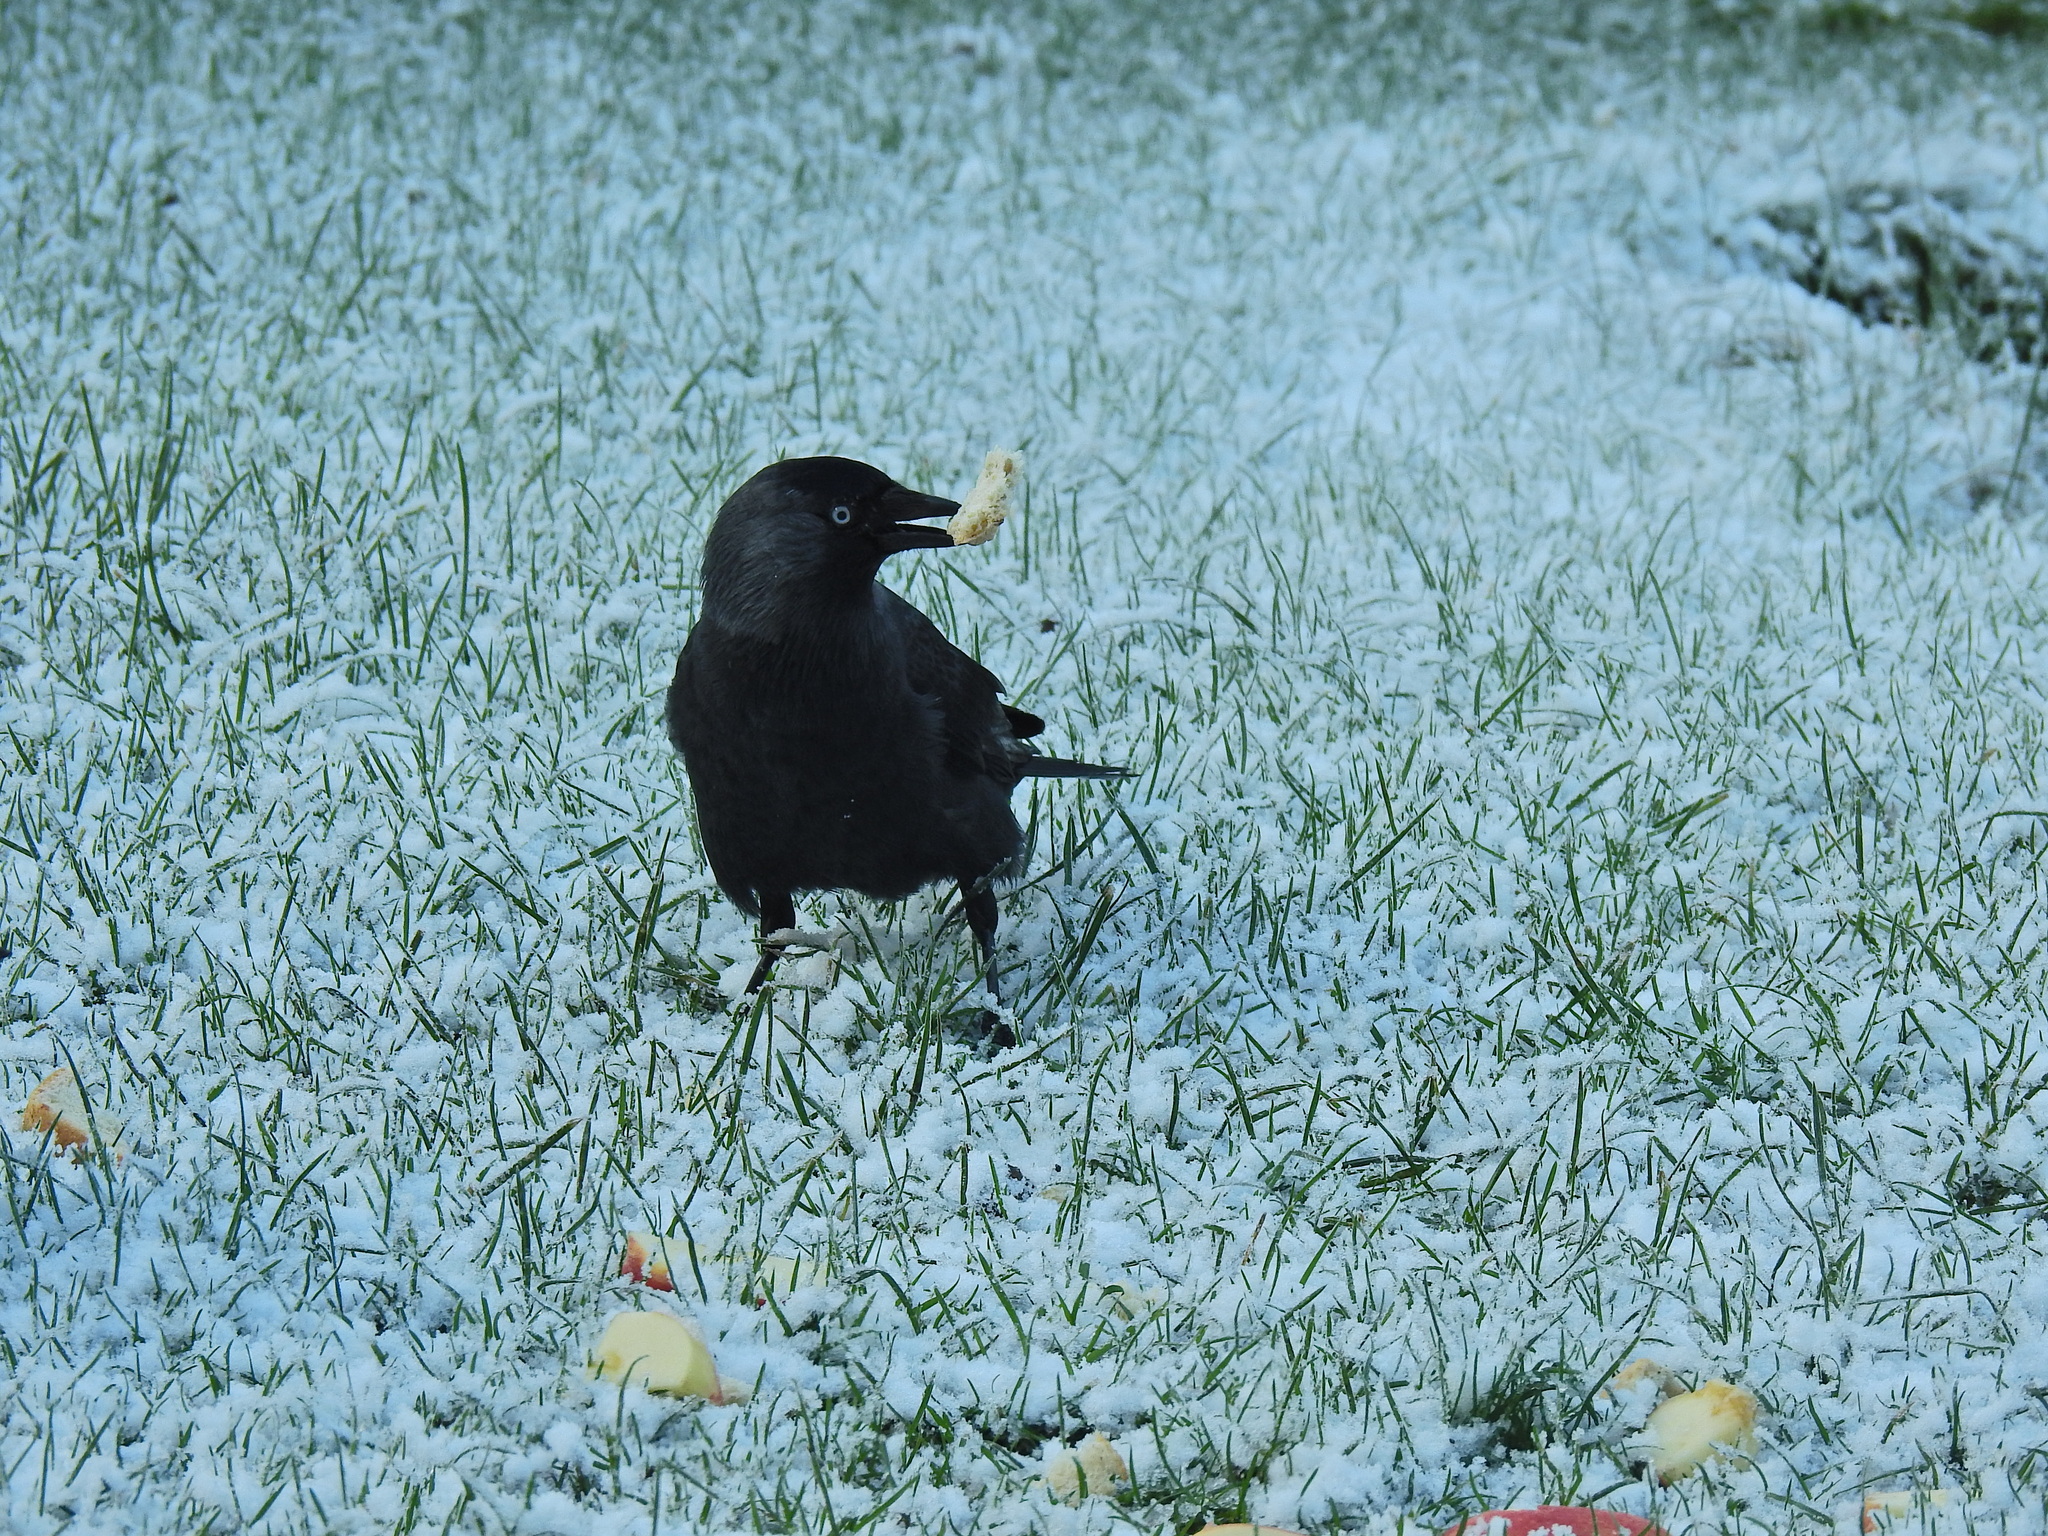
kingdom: Animalia
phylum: Chordata
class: Aves
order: Passeriformes
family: Corvidae
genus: Coloeus
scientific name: Coloeus monedula
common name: Western jackdaw
